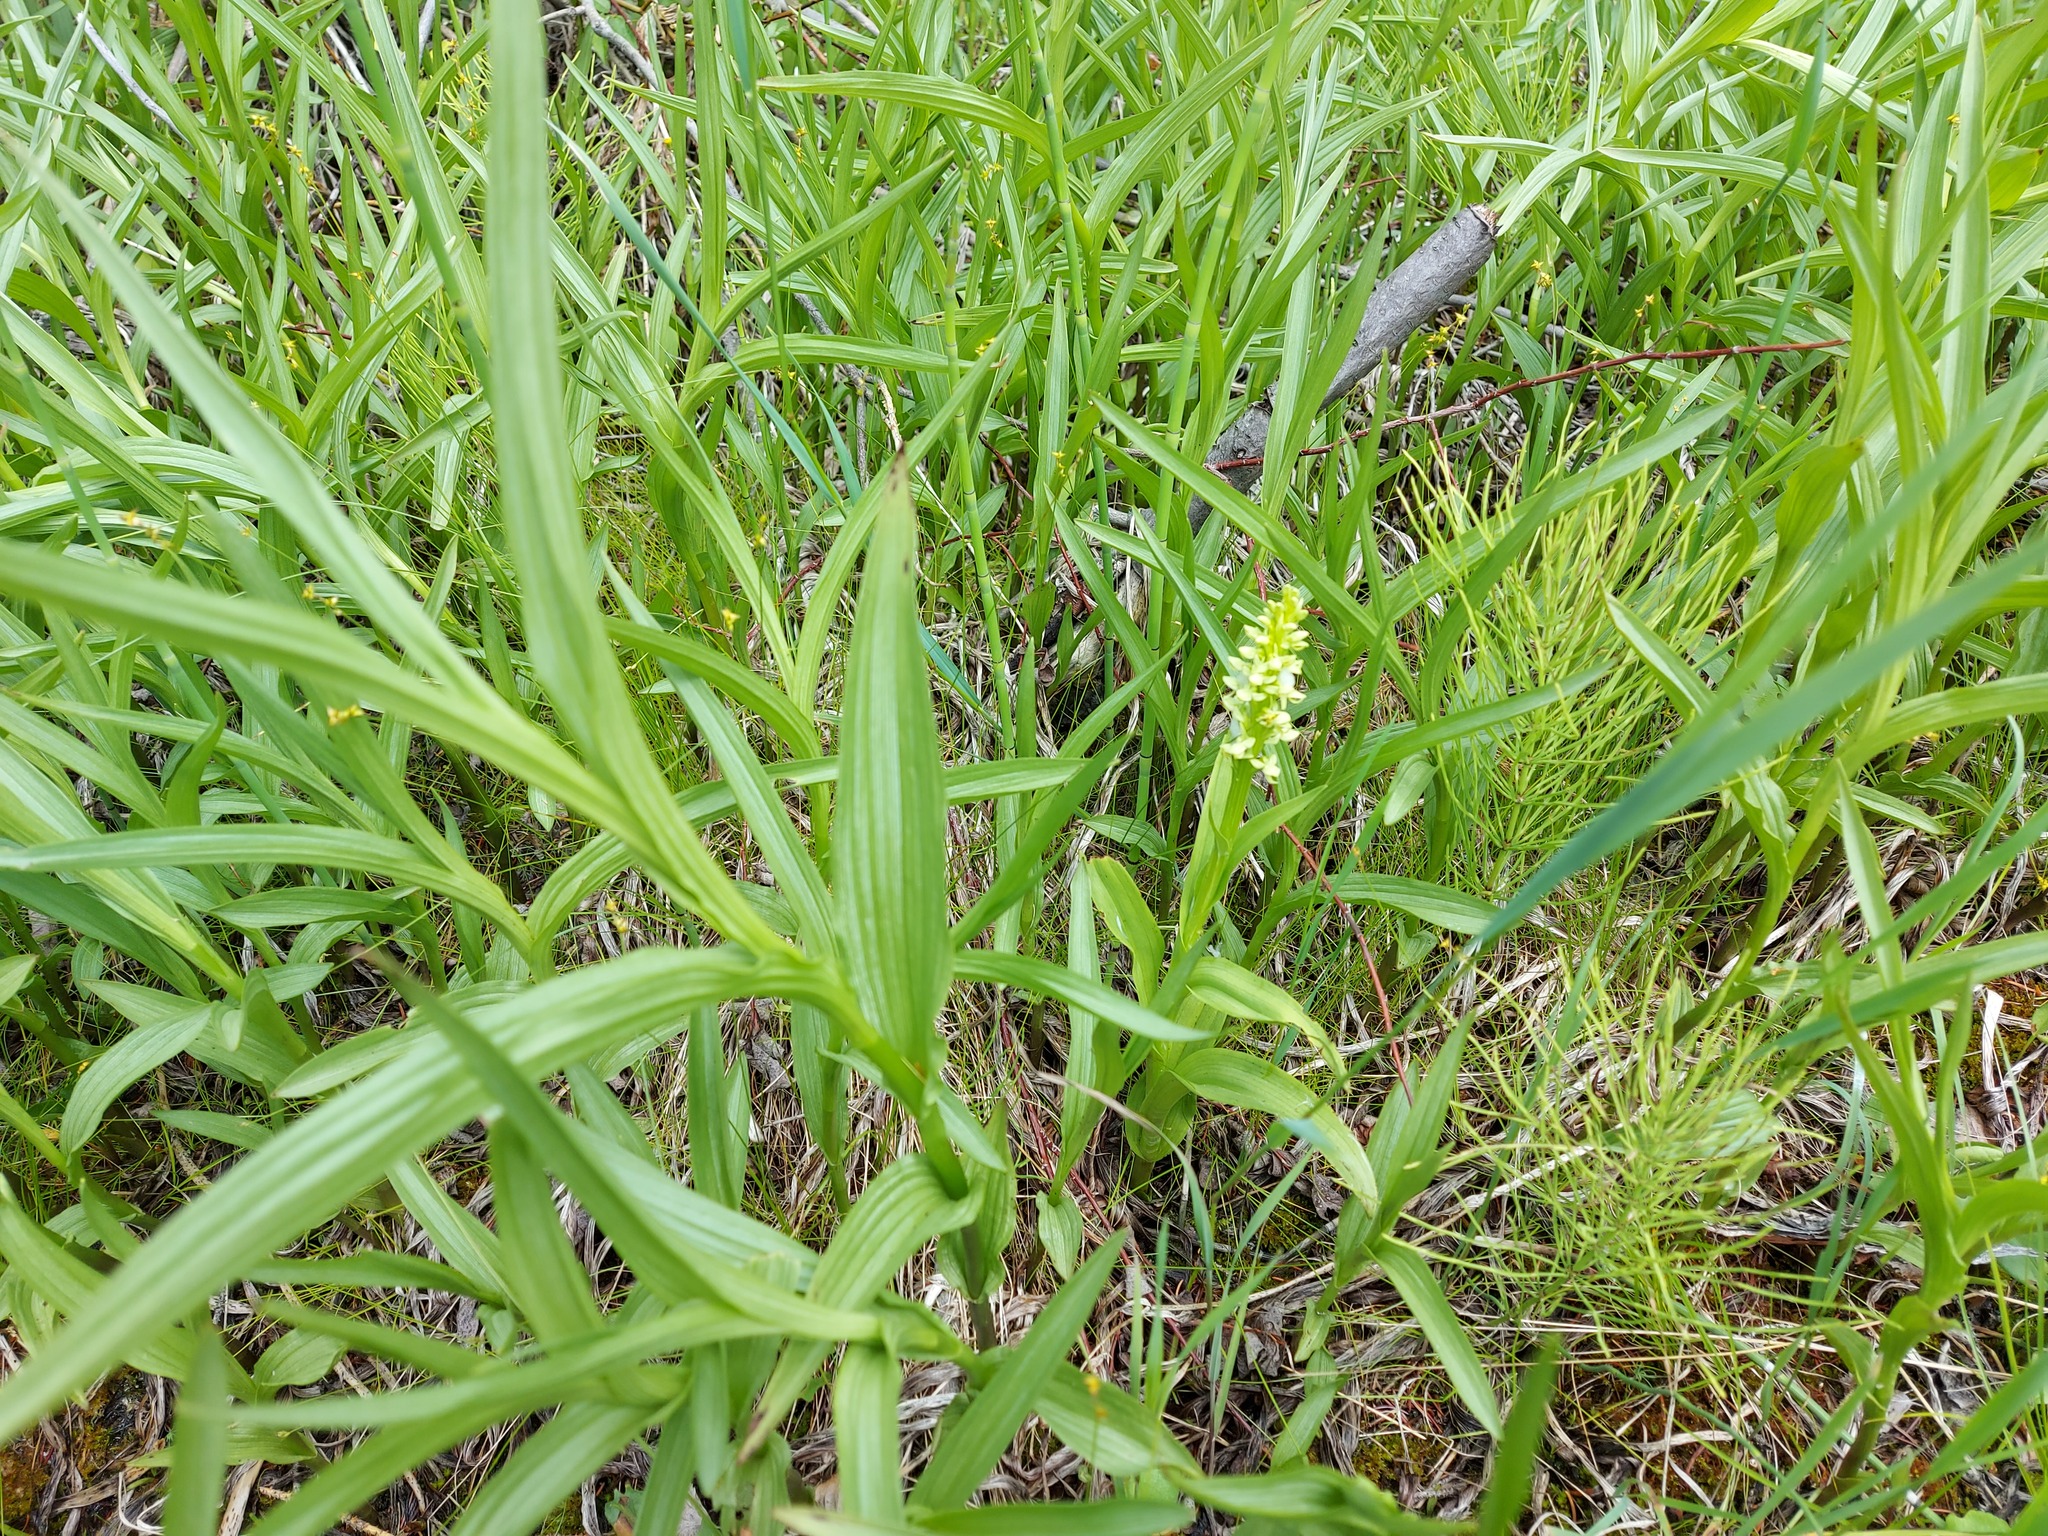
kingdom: Plantae
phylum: Tracheophyta
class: Liliopsida
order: Liliales
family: Liliaceae
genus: Lilium
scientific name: Lilium philadelphicum
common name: Red lily
